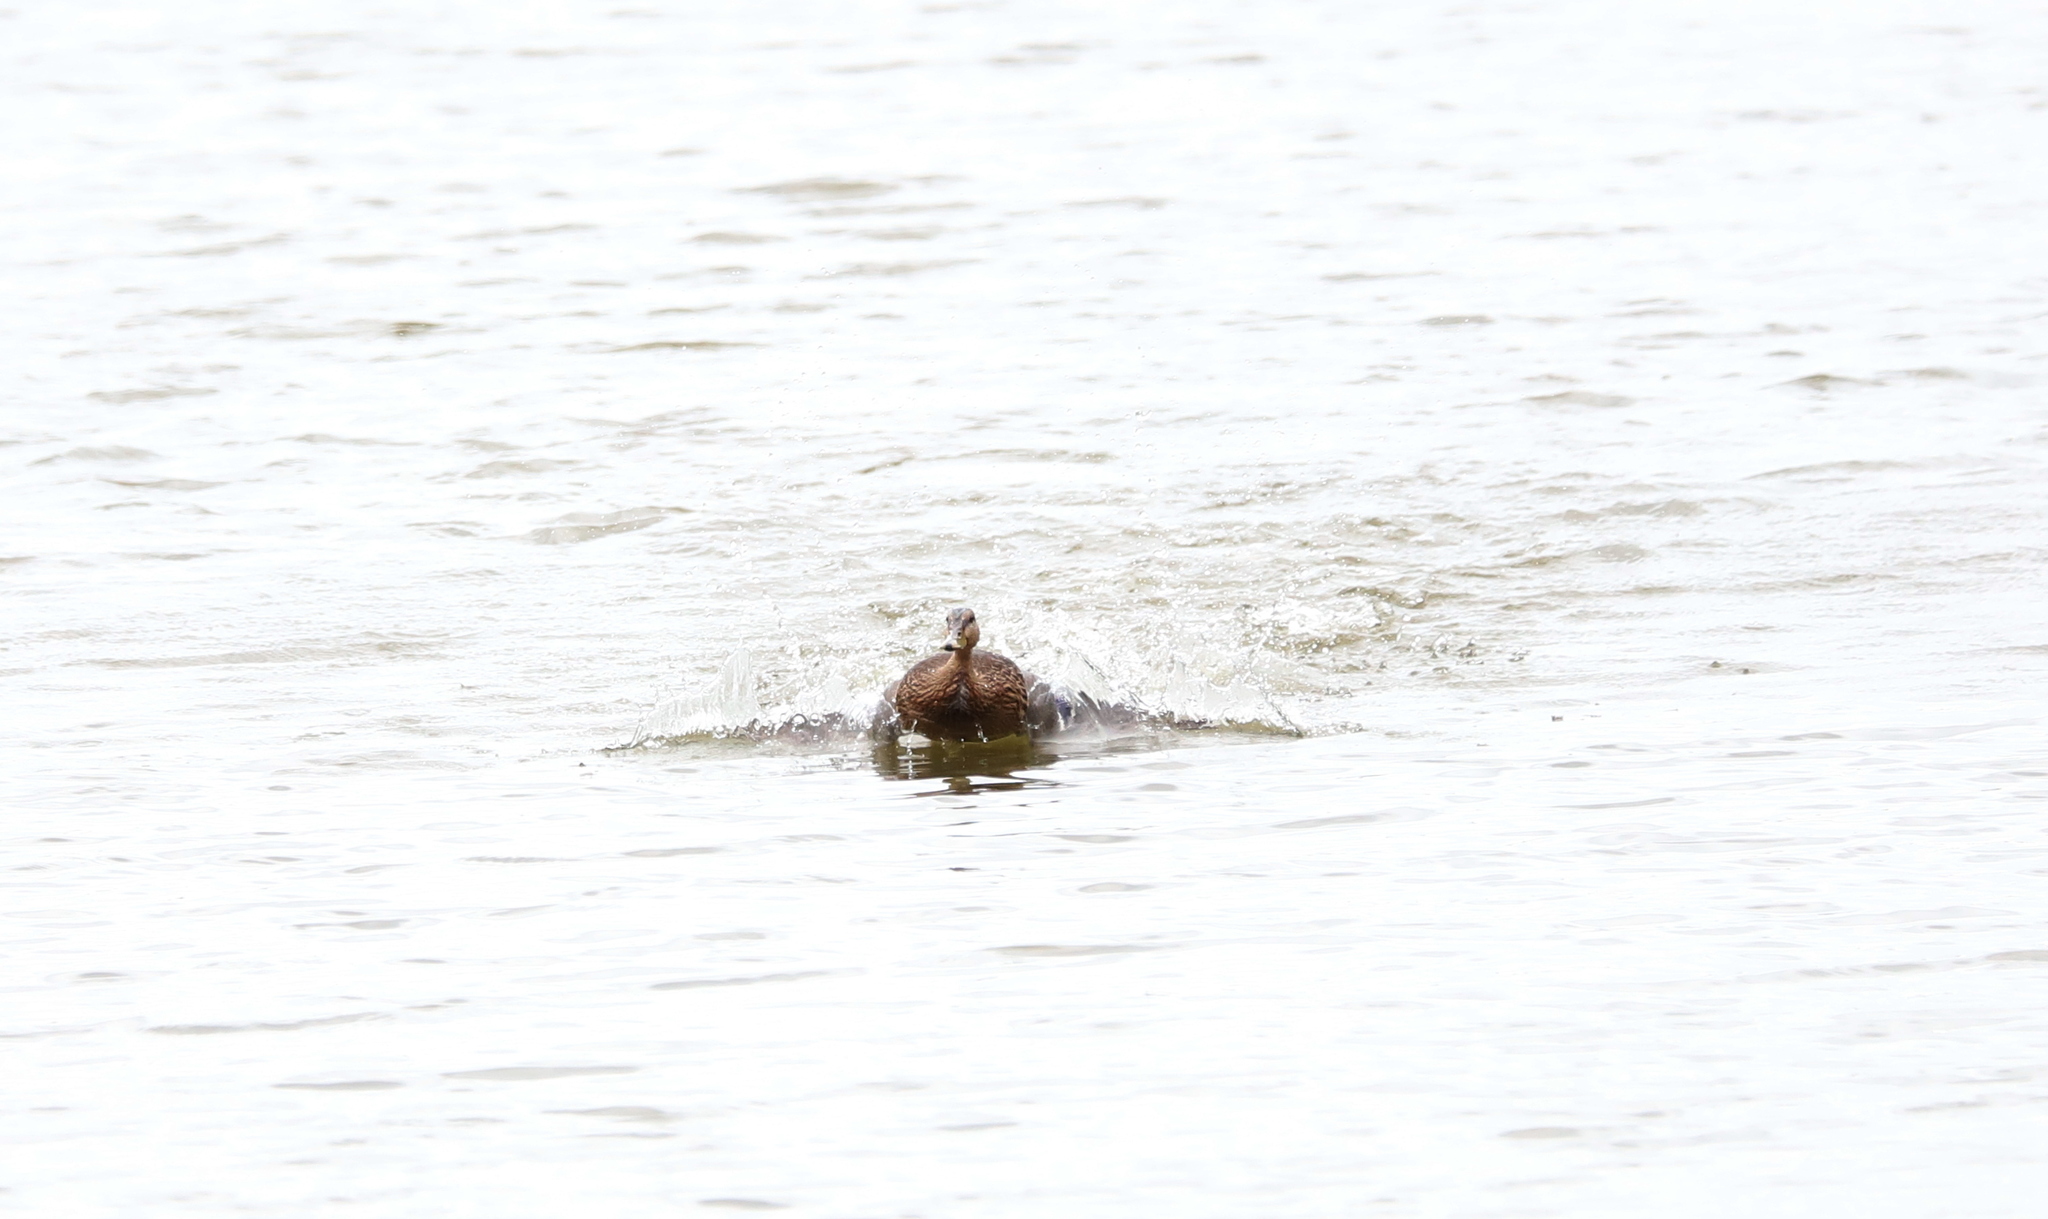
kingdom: Animalia
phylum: Chordata
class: Aves
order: Anseriformes
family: Anatidae
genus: Anas
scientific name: Anas platyrhynchos
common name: Mallard
